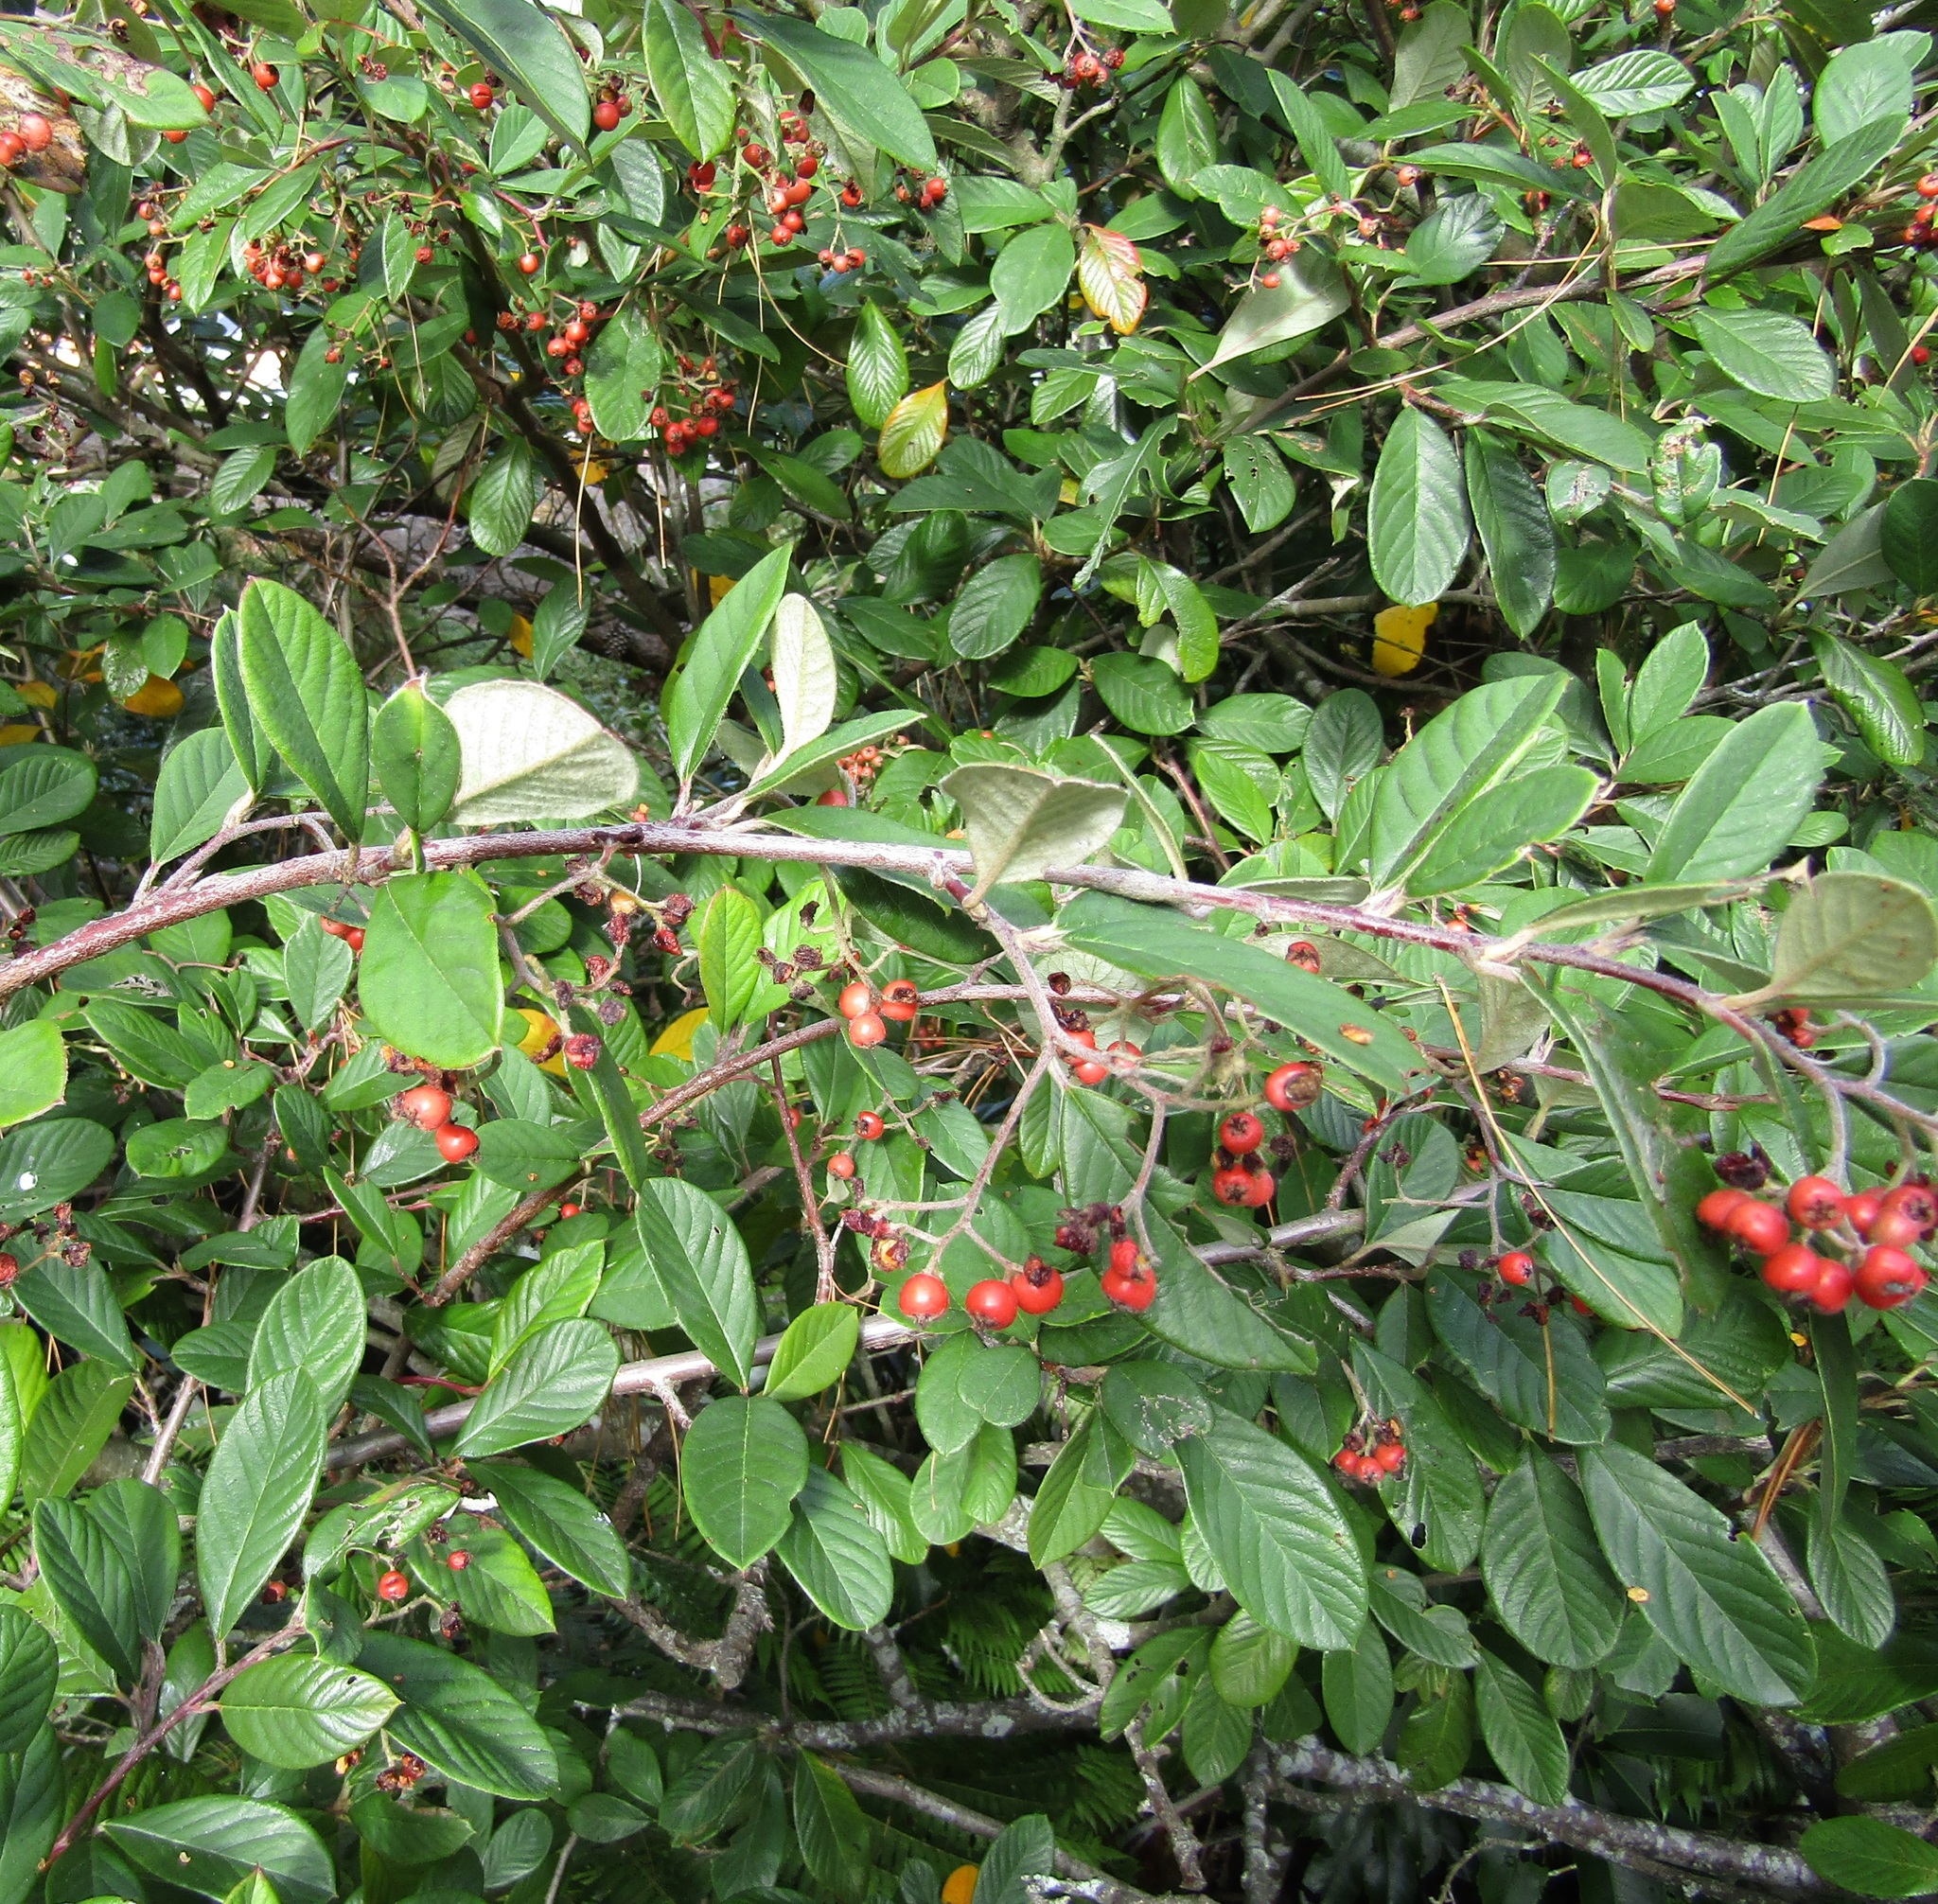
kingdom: Plantae
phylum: Tracheophyta
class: Magnoliopsida
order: Rosales
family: Rosaceae
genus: Cotoneaster
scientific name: Cotoneaster coriaceus
